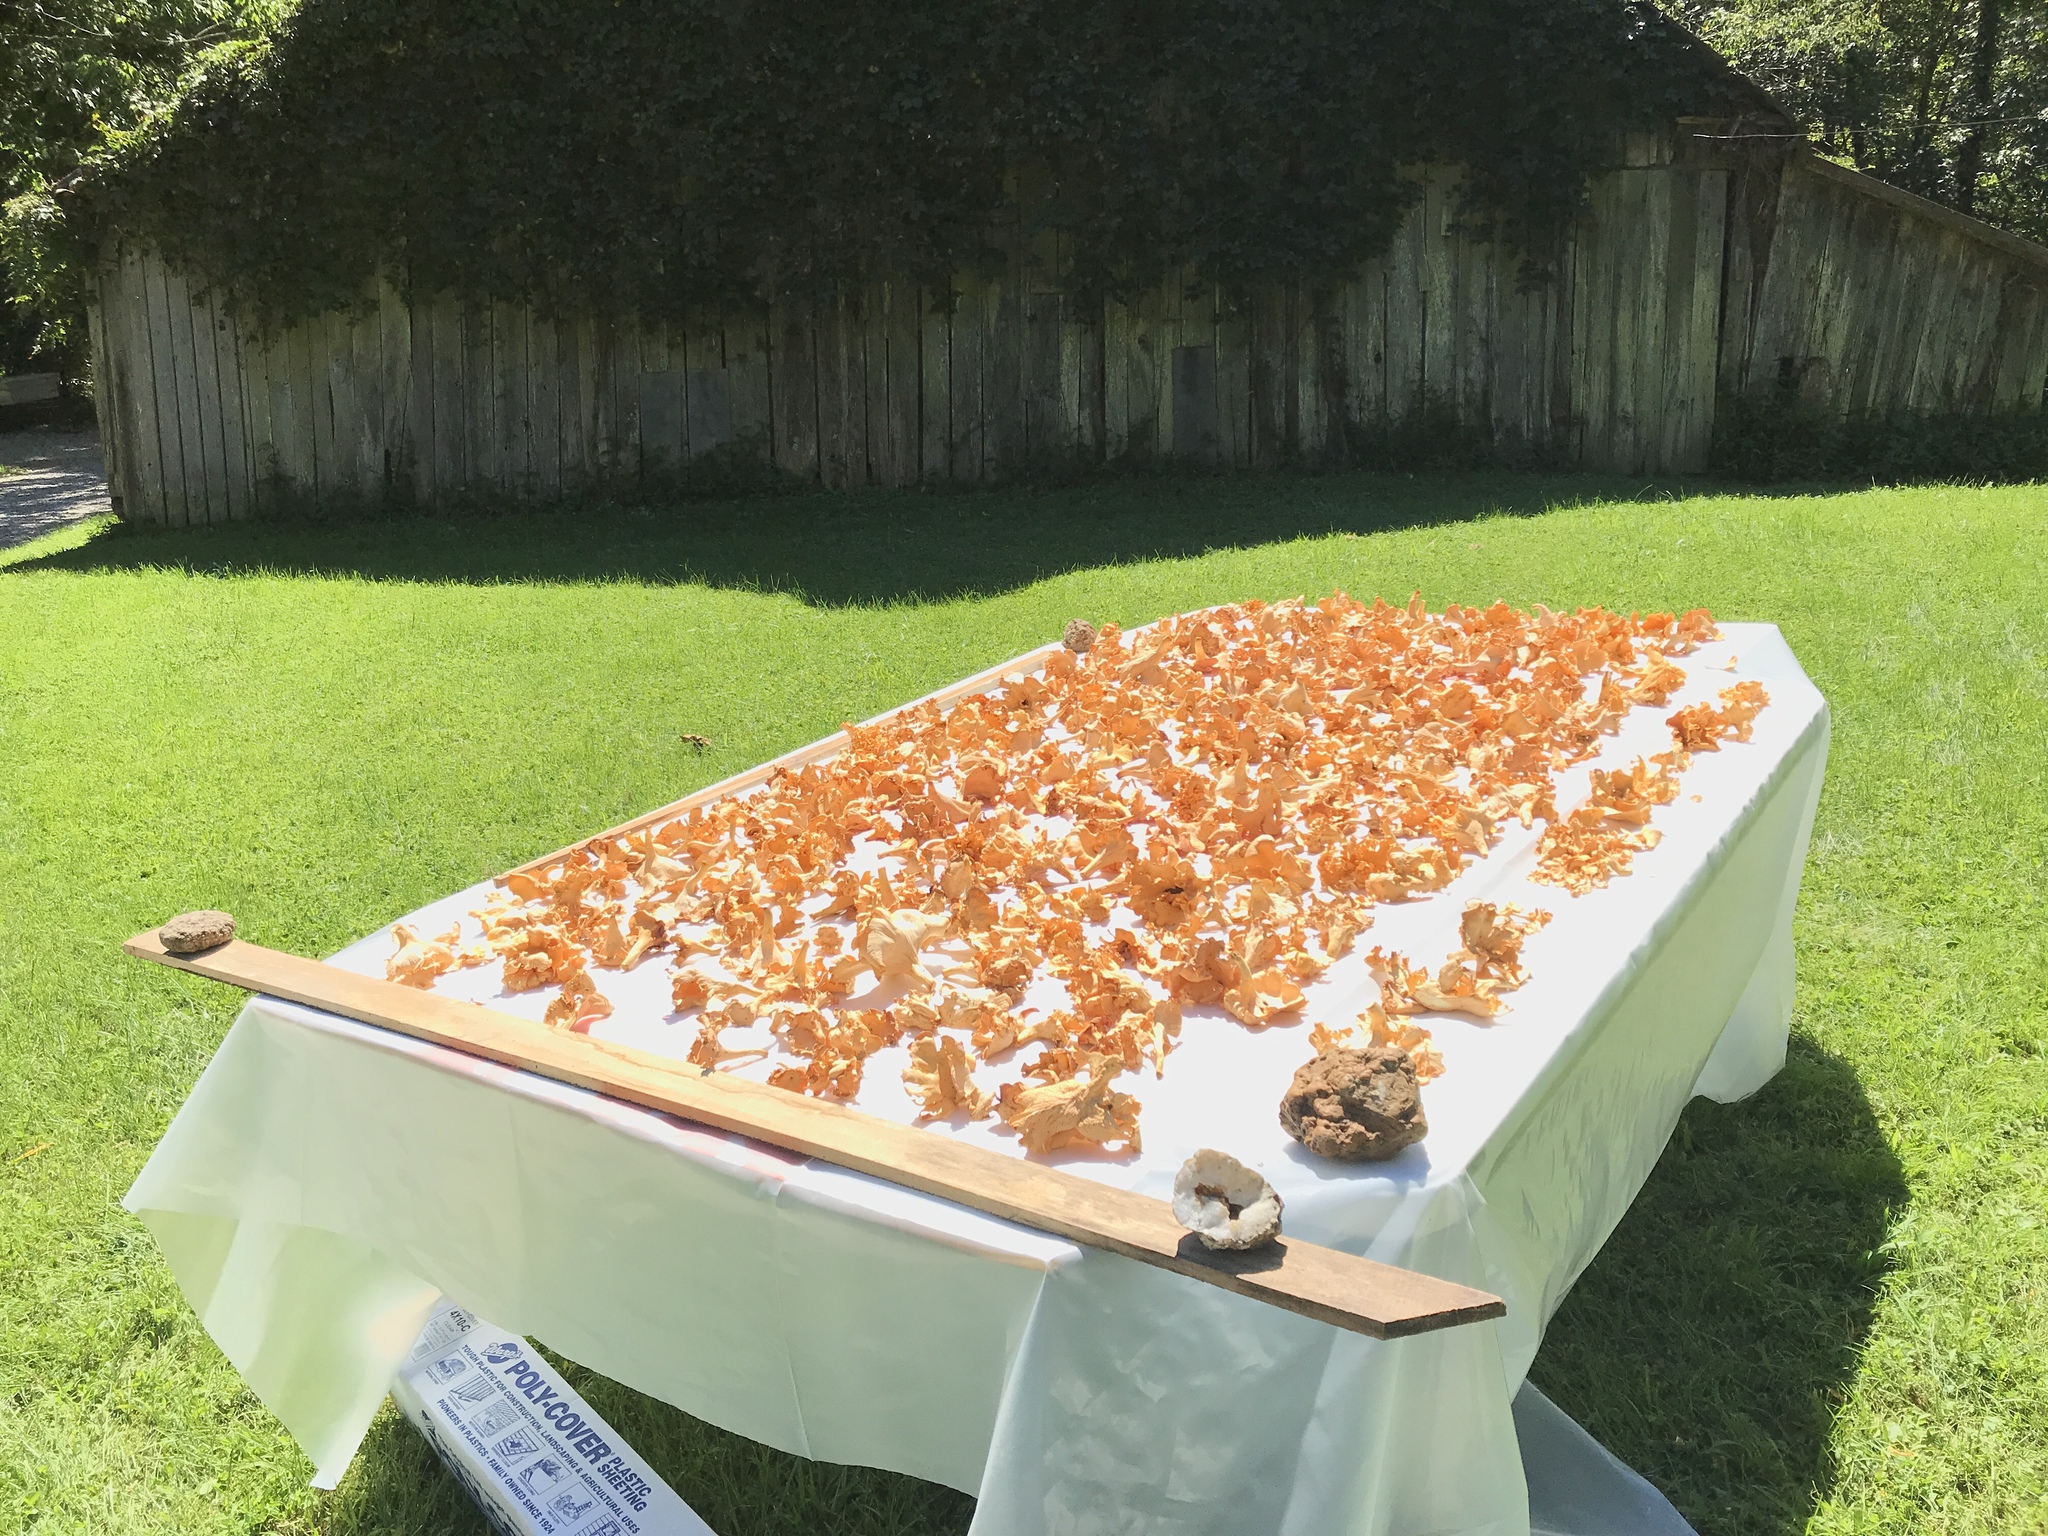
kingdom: Fungi
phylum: Basidiomycota
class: Agaricomycetes
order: Cantharellales
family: Hydnaceae
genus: Cantharellus
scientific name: Cantharellus flavolateritius
